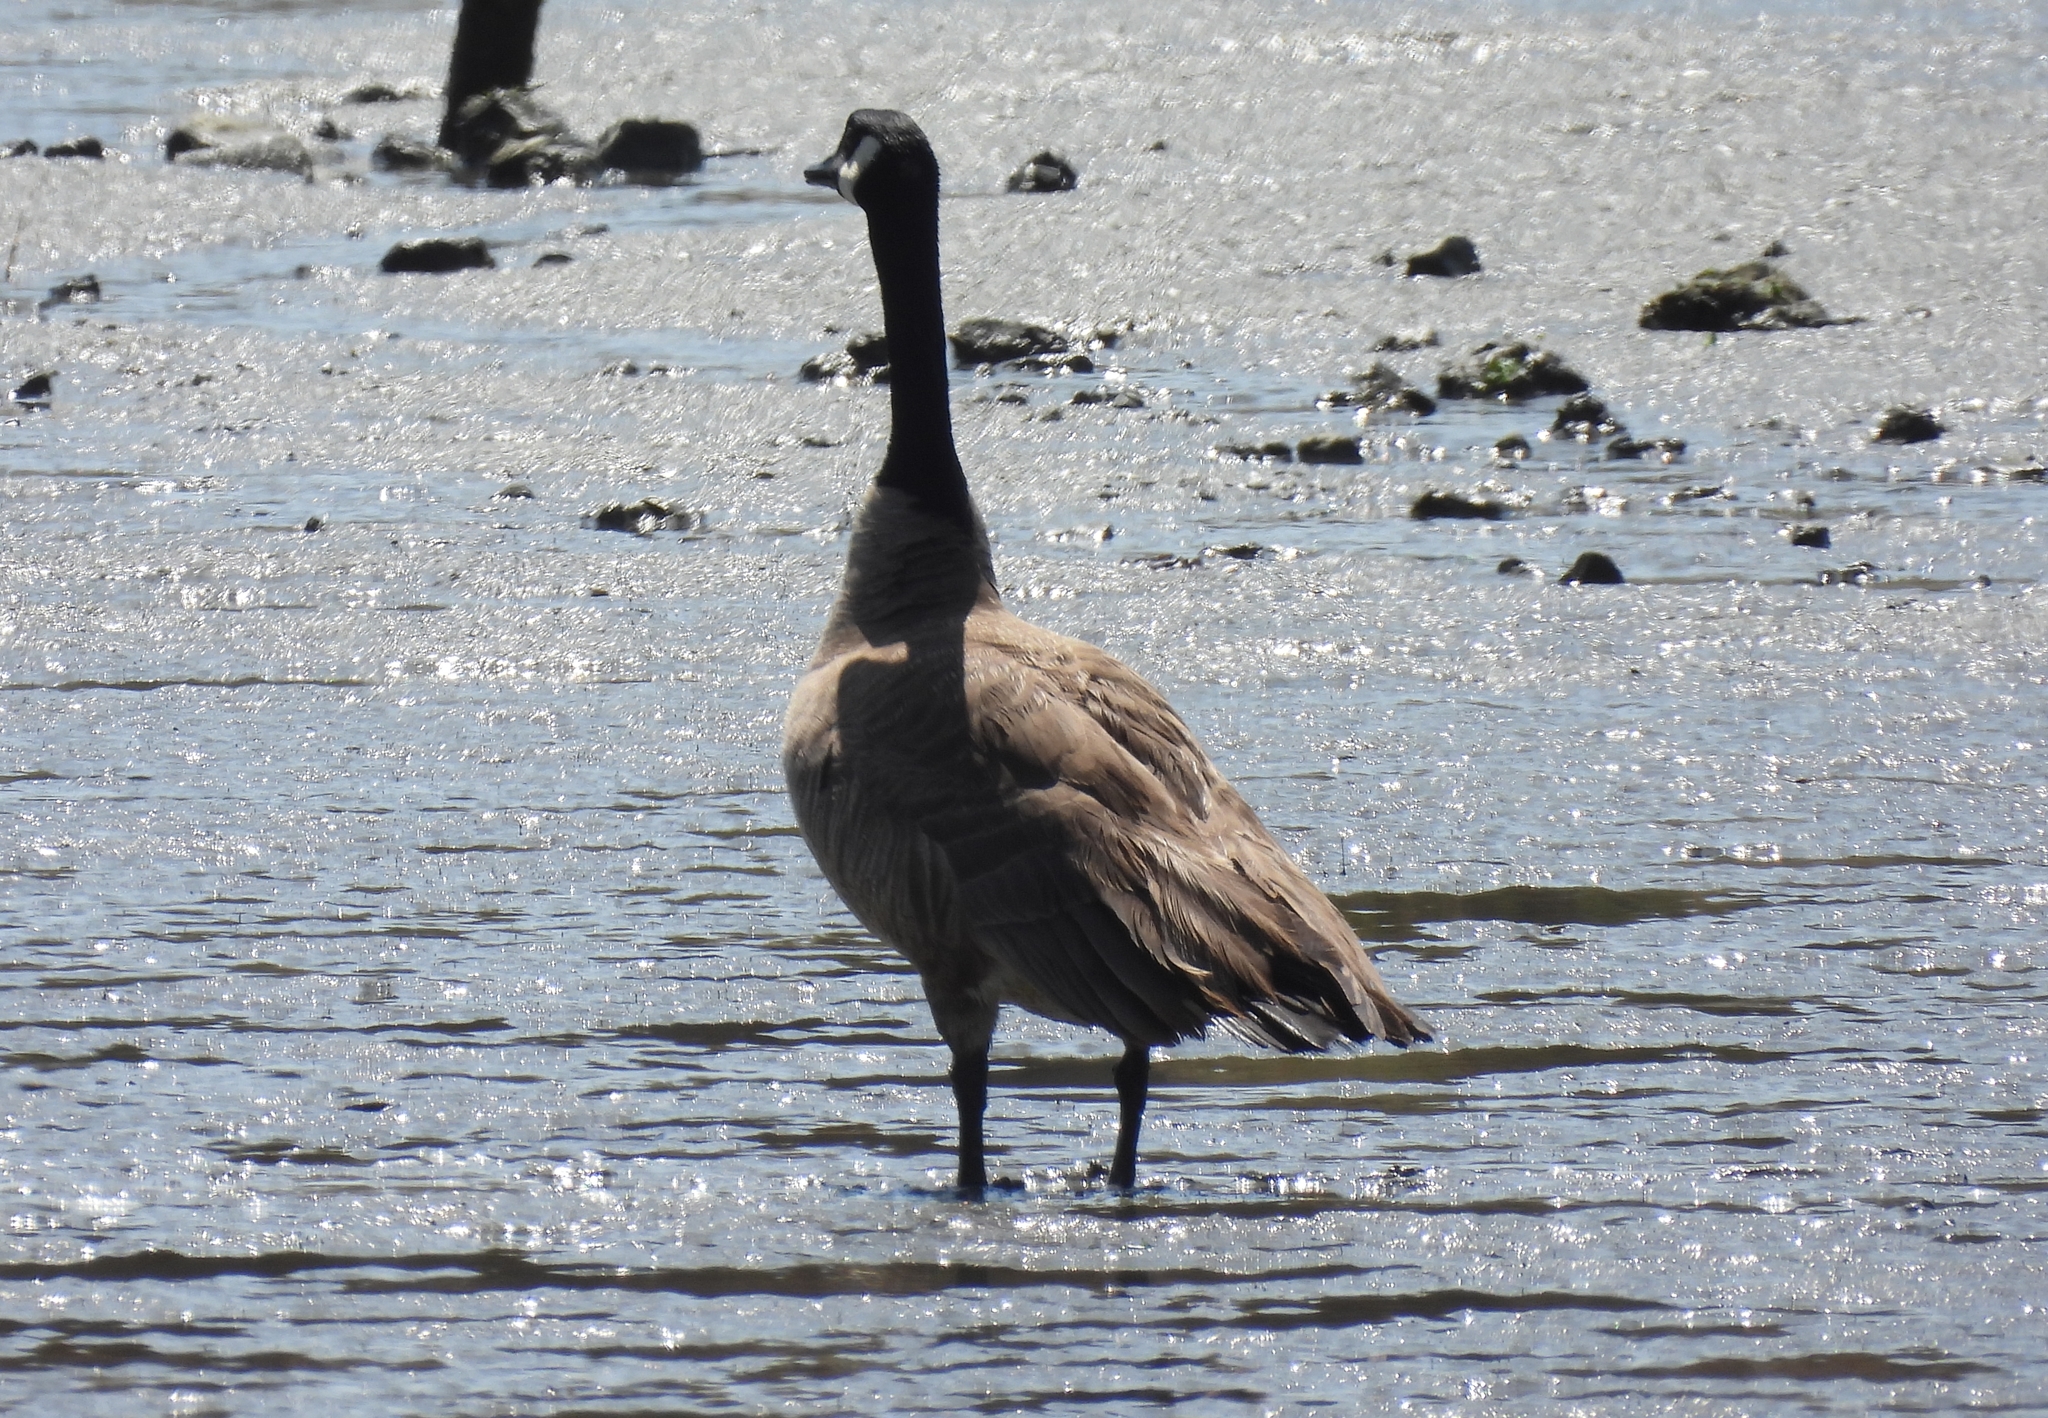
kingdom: Animalia
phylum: Chordata
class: Aves
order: Anseriformes
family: Anatidae
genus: Branta
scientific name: Branta canadensis
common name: Canada goose
